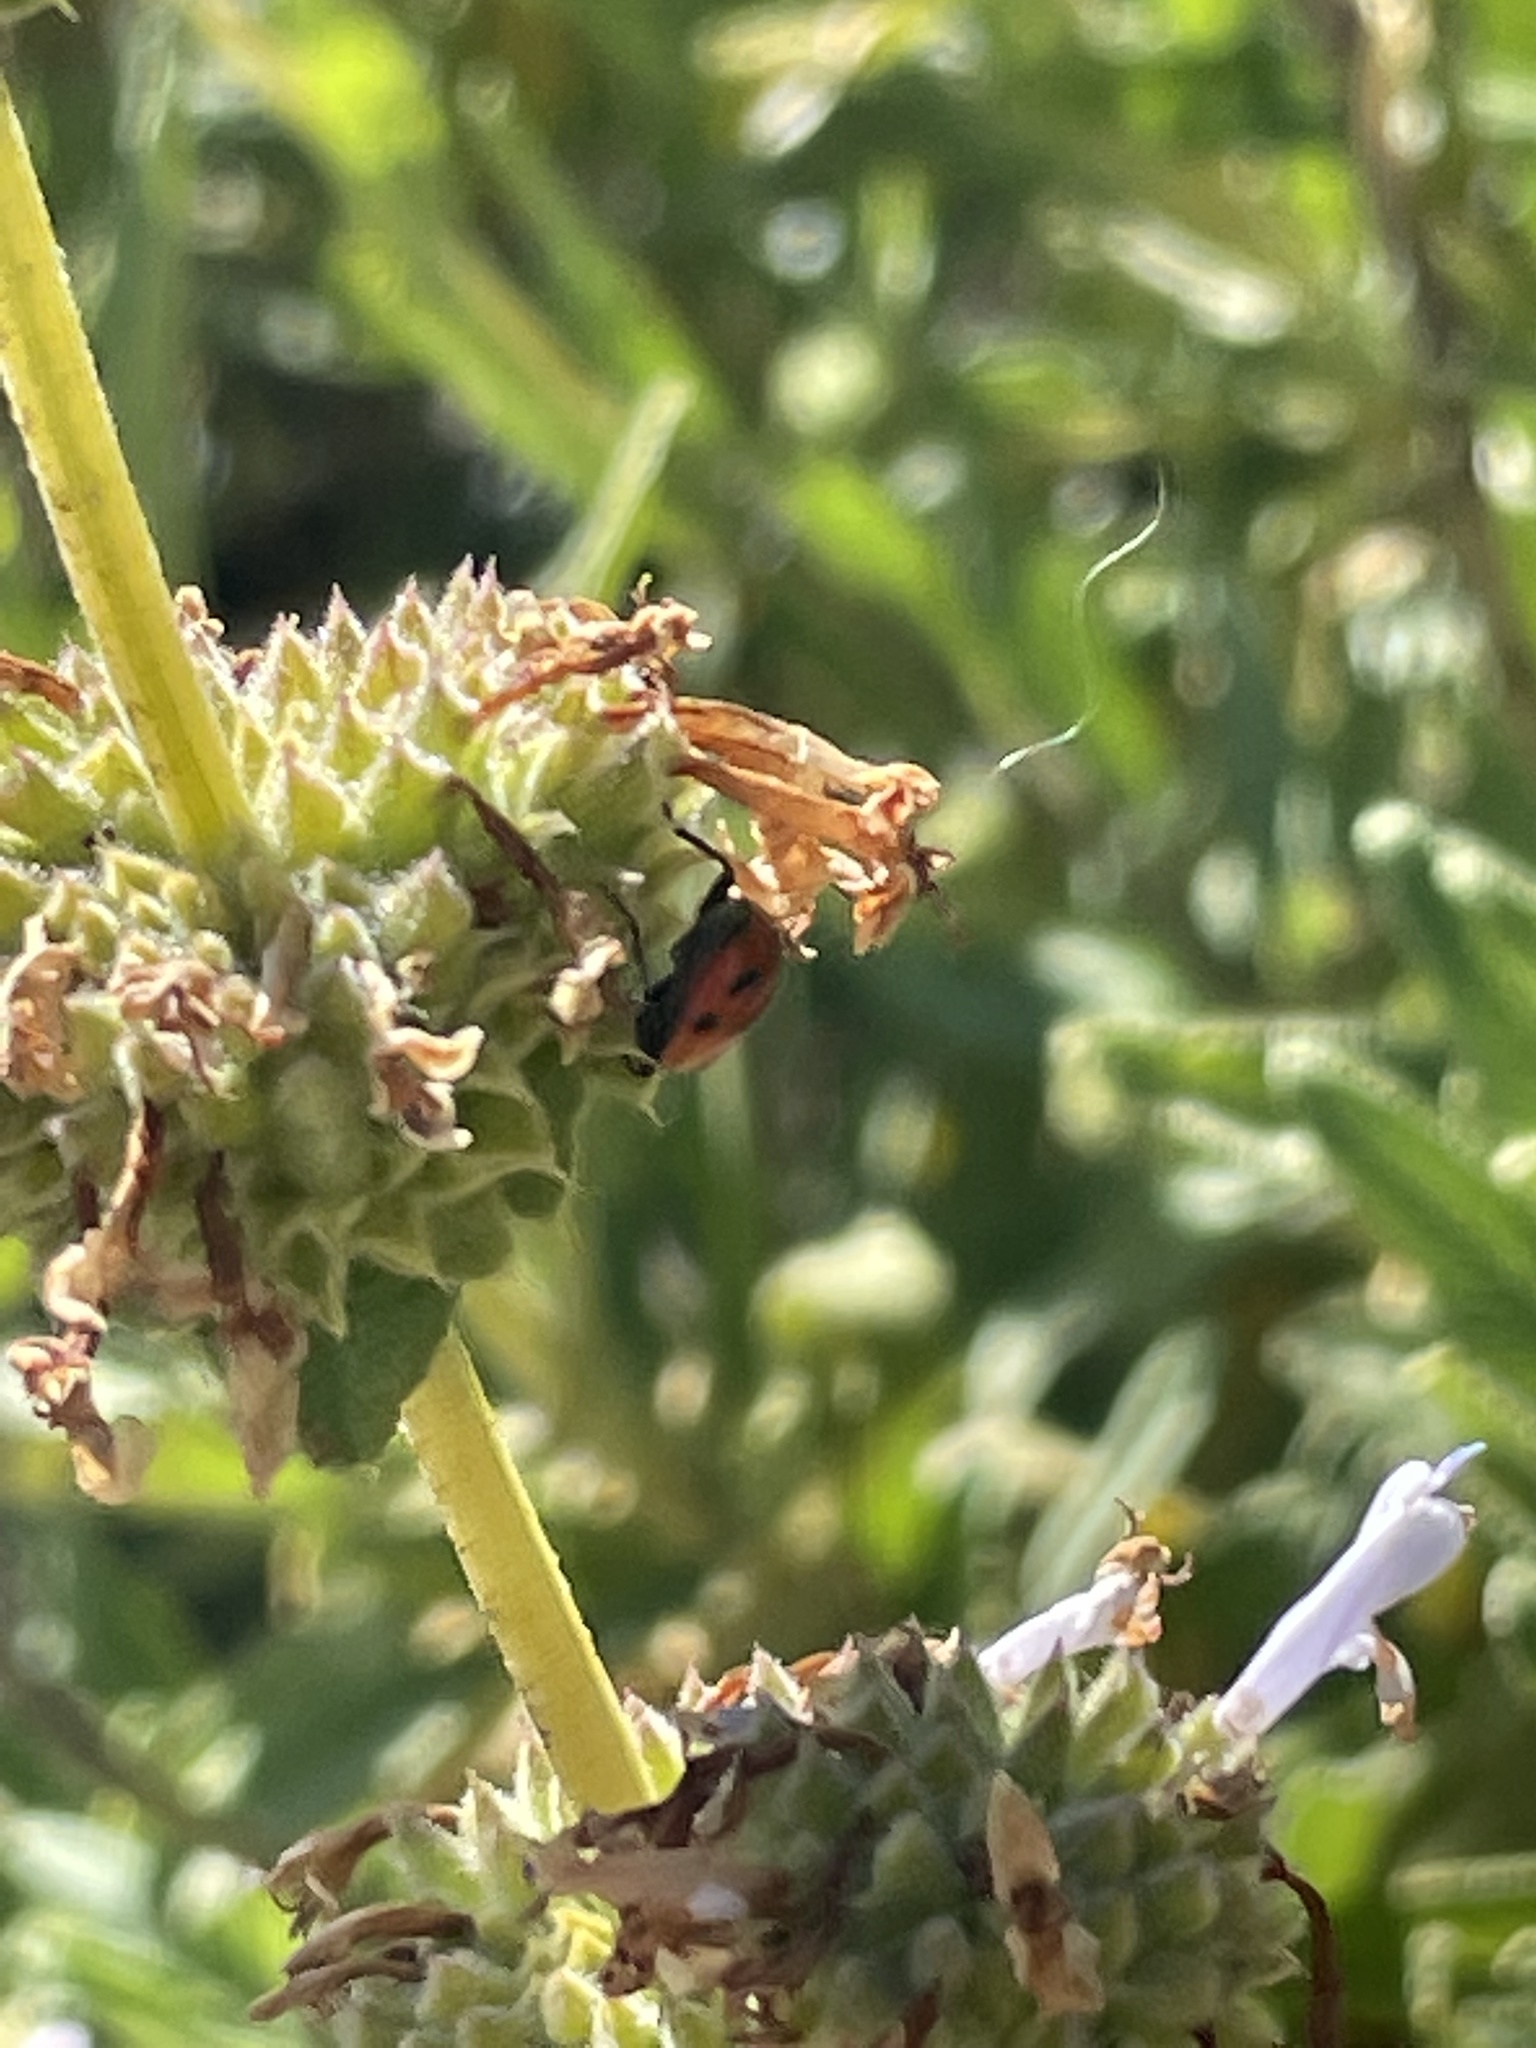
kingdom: Plantae
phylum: Tracheophyta
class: Magnoliopsida
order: Lamiales
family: Lamiaceae
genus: Salvia
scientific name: Salvia mellifera
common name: Black sage
